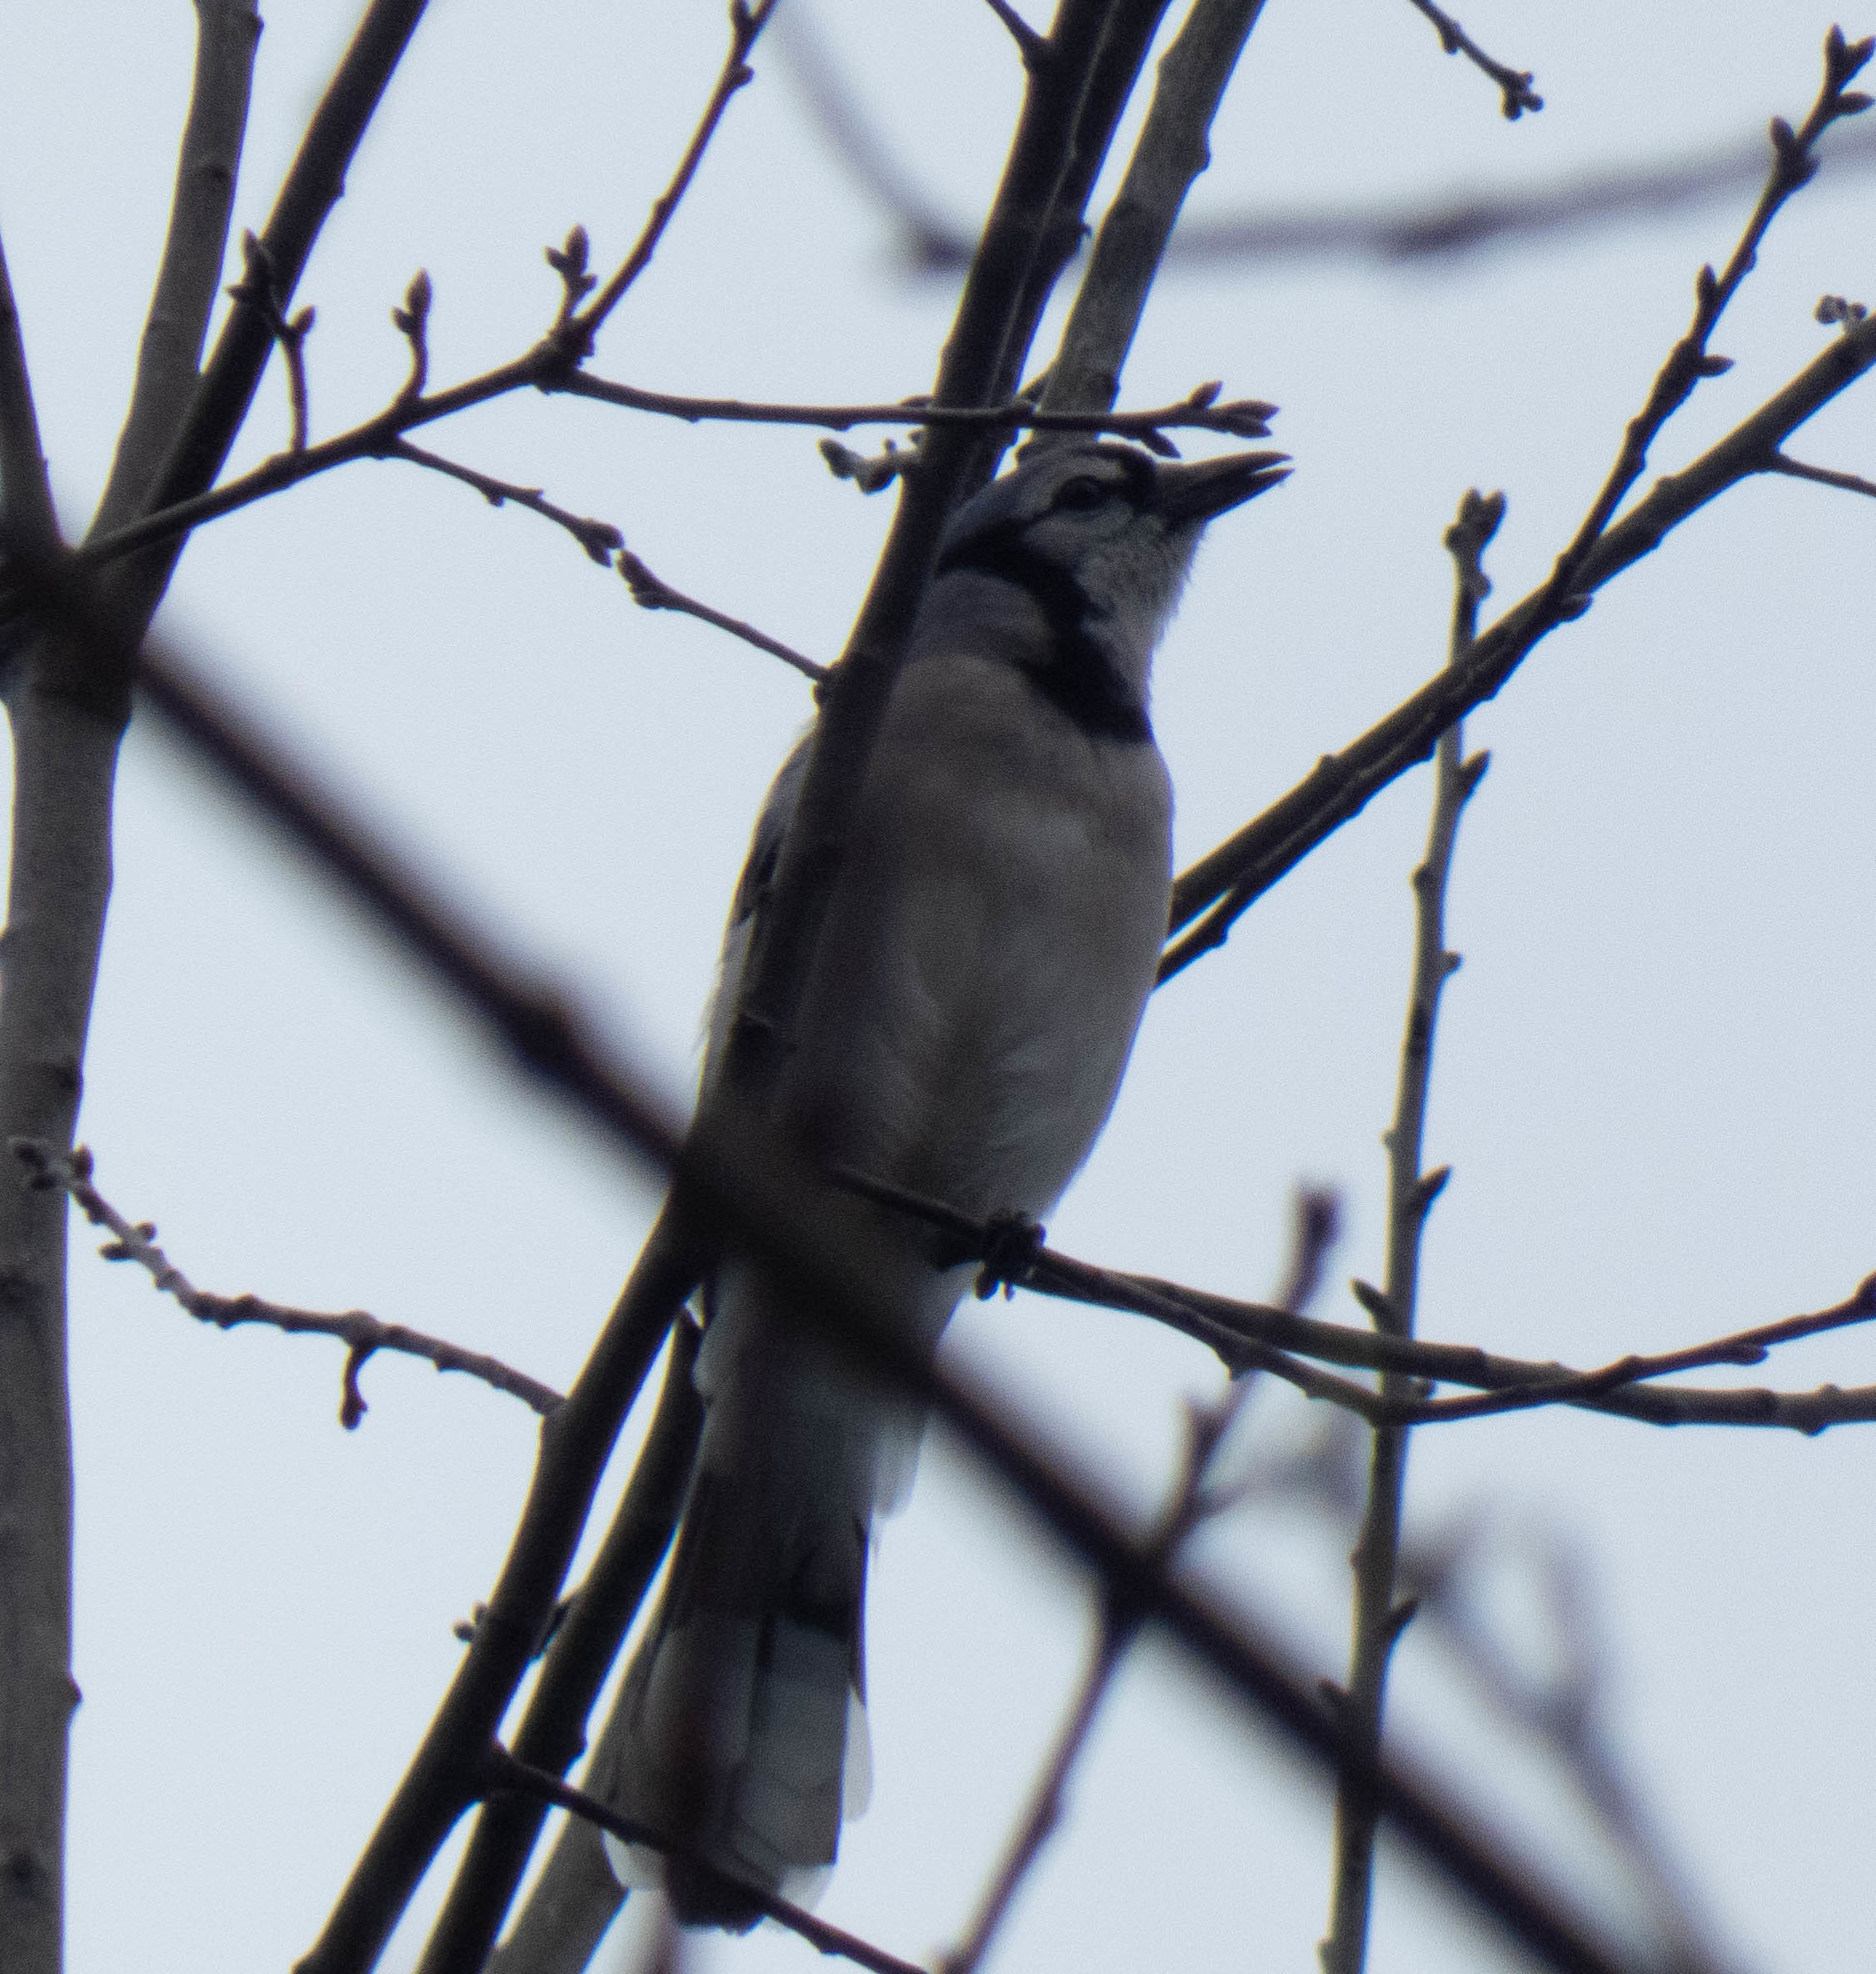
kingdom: Animalia
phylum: Chordata
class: Aves
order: Passeriformes
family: Corvidae
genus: Cyanocitta
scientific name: Cyanocitta cristata
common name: Blue jay
